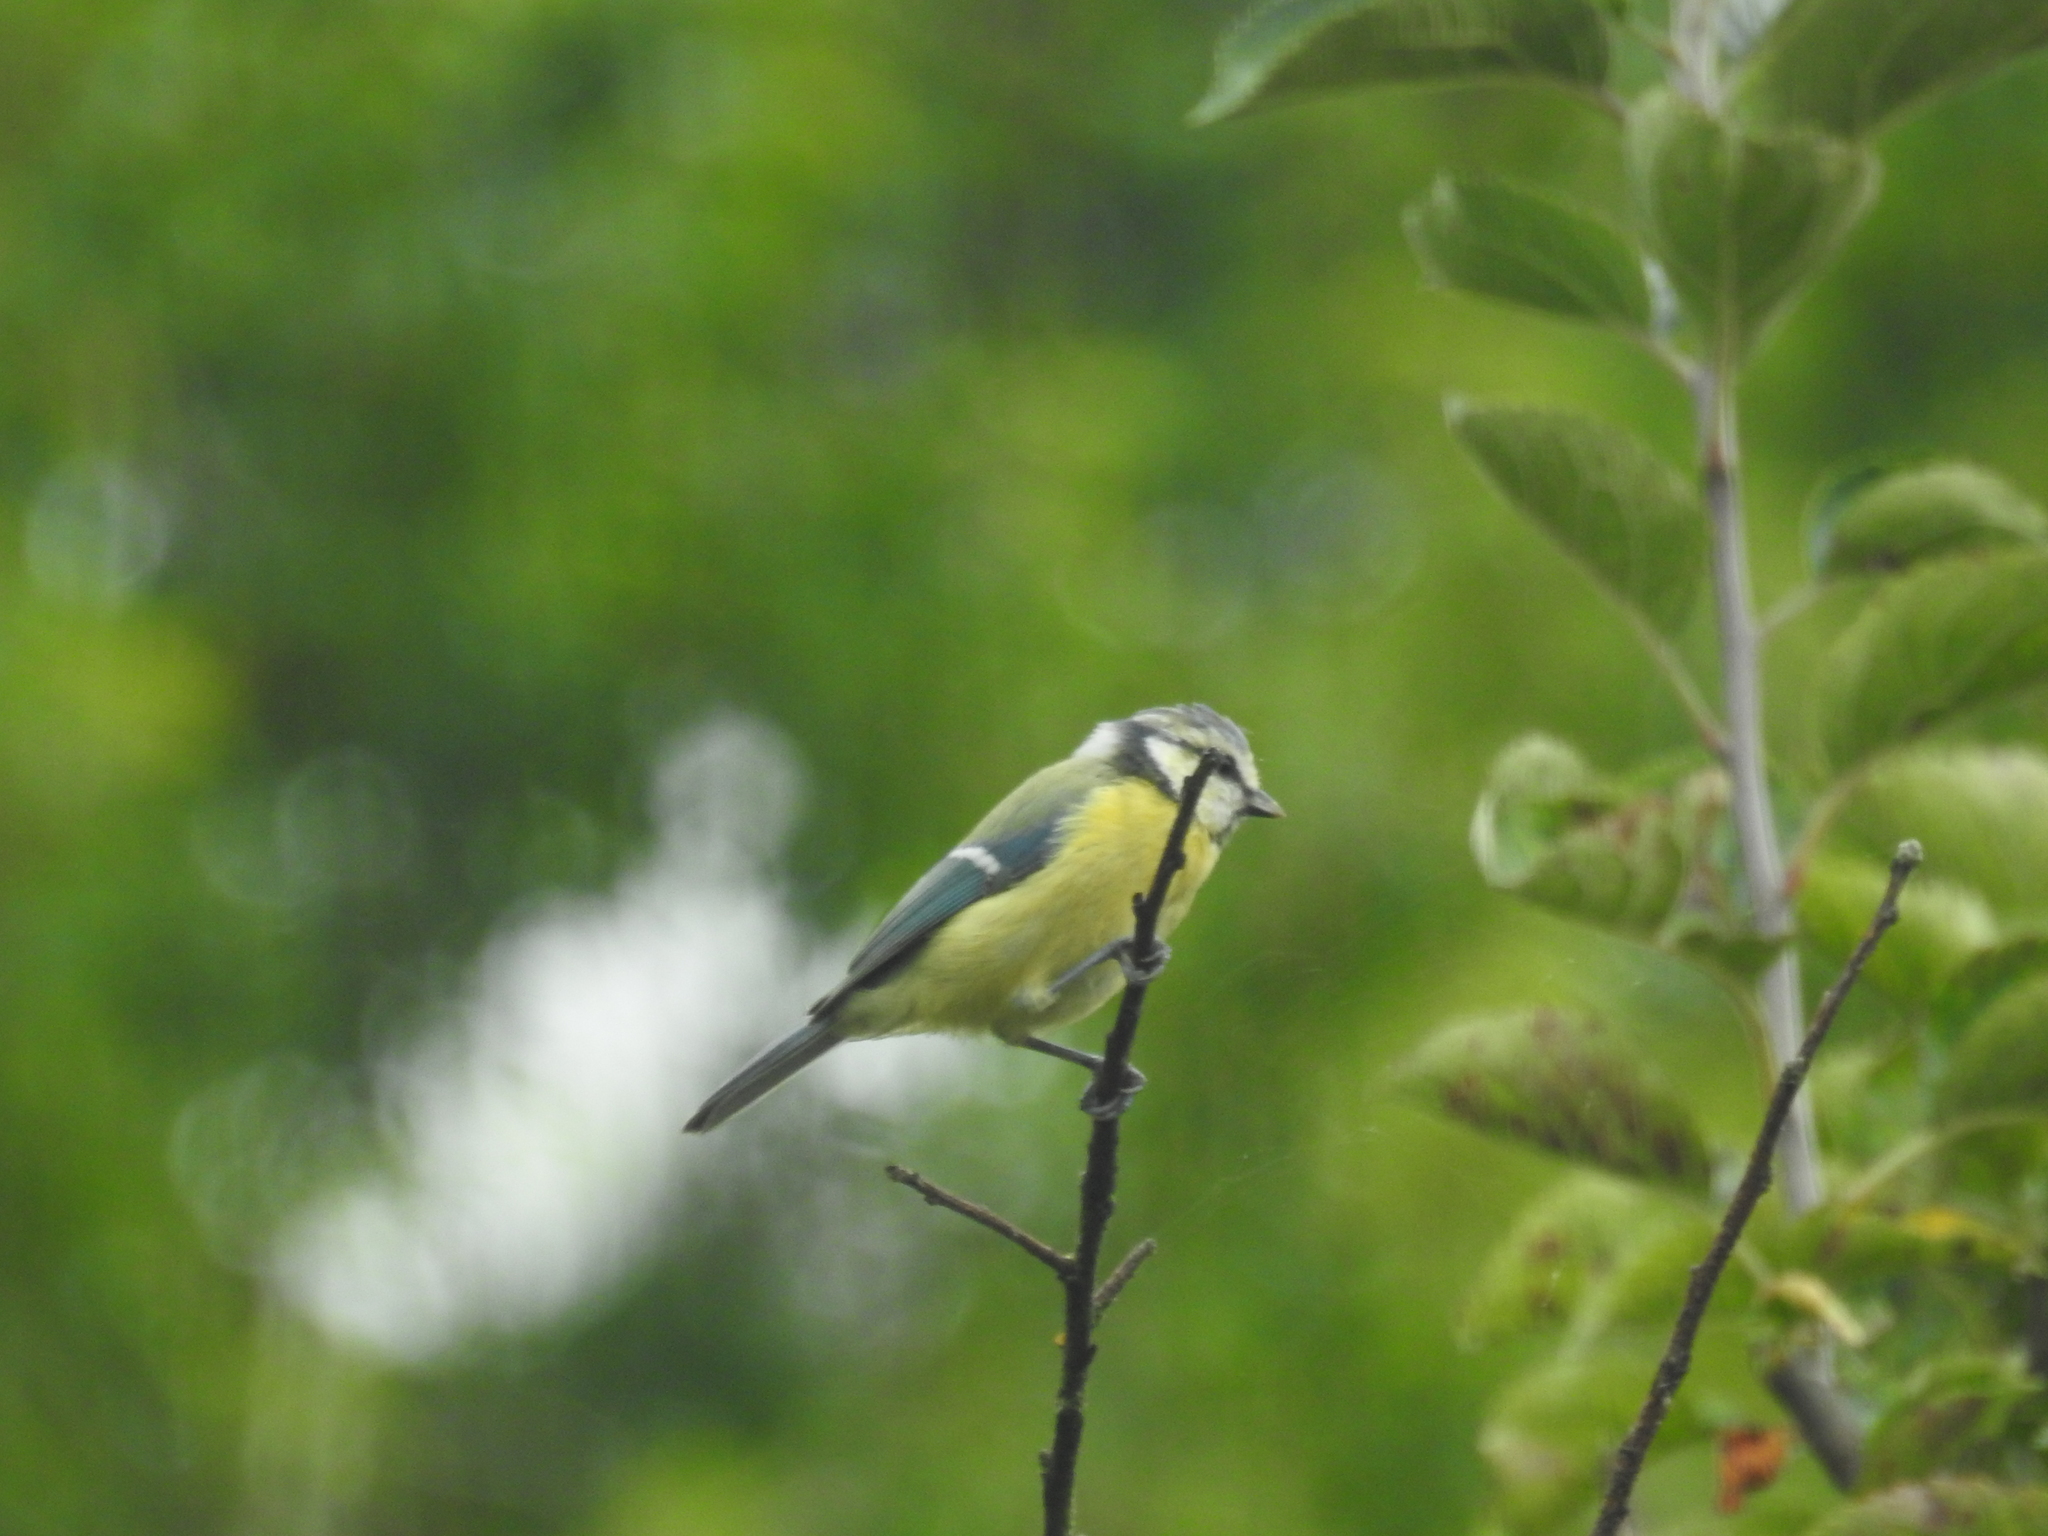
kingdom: Animalia
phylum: Chordata
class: Aves
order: Passeriformes
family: Paridae
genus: Cyanistes
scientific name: Cyanistes caeruleus
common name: Eurasian blue tit
